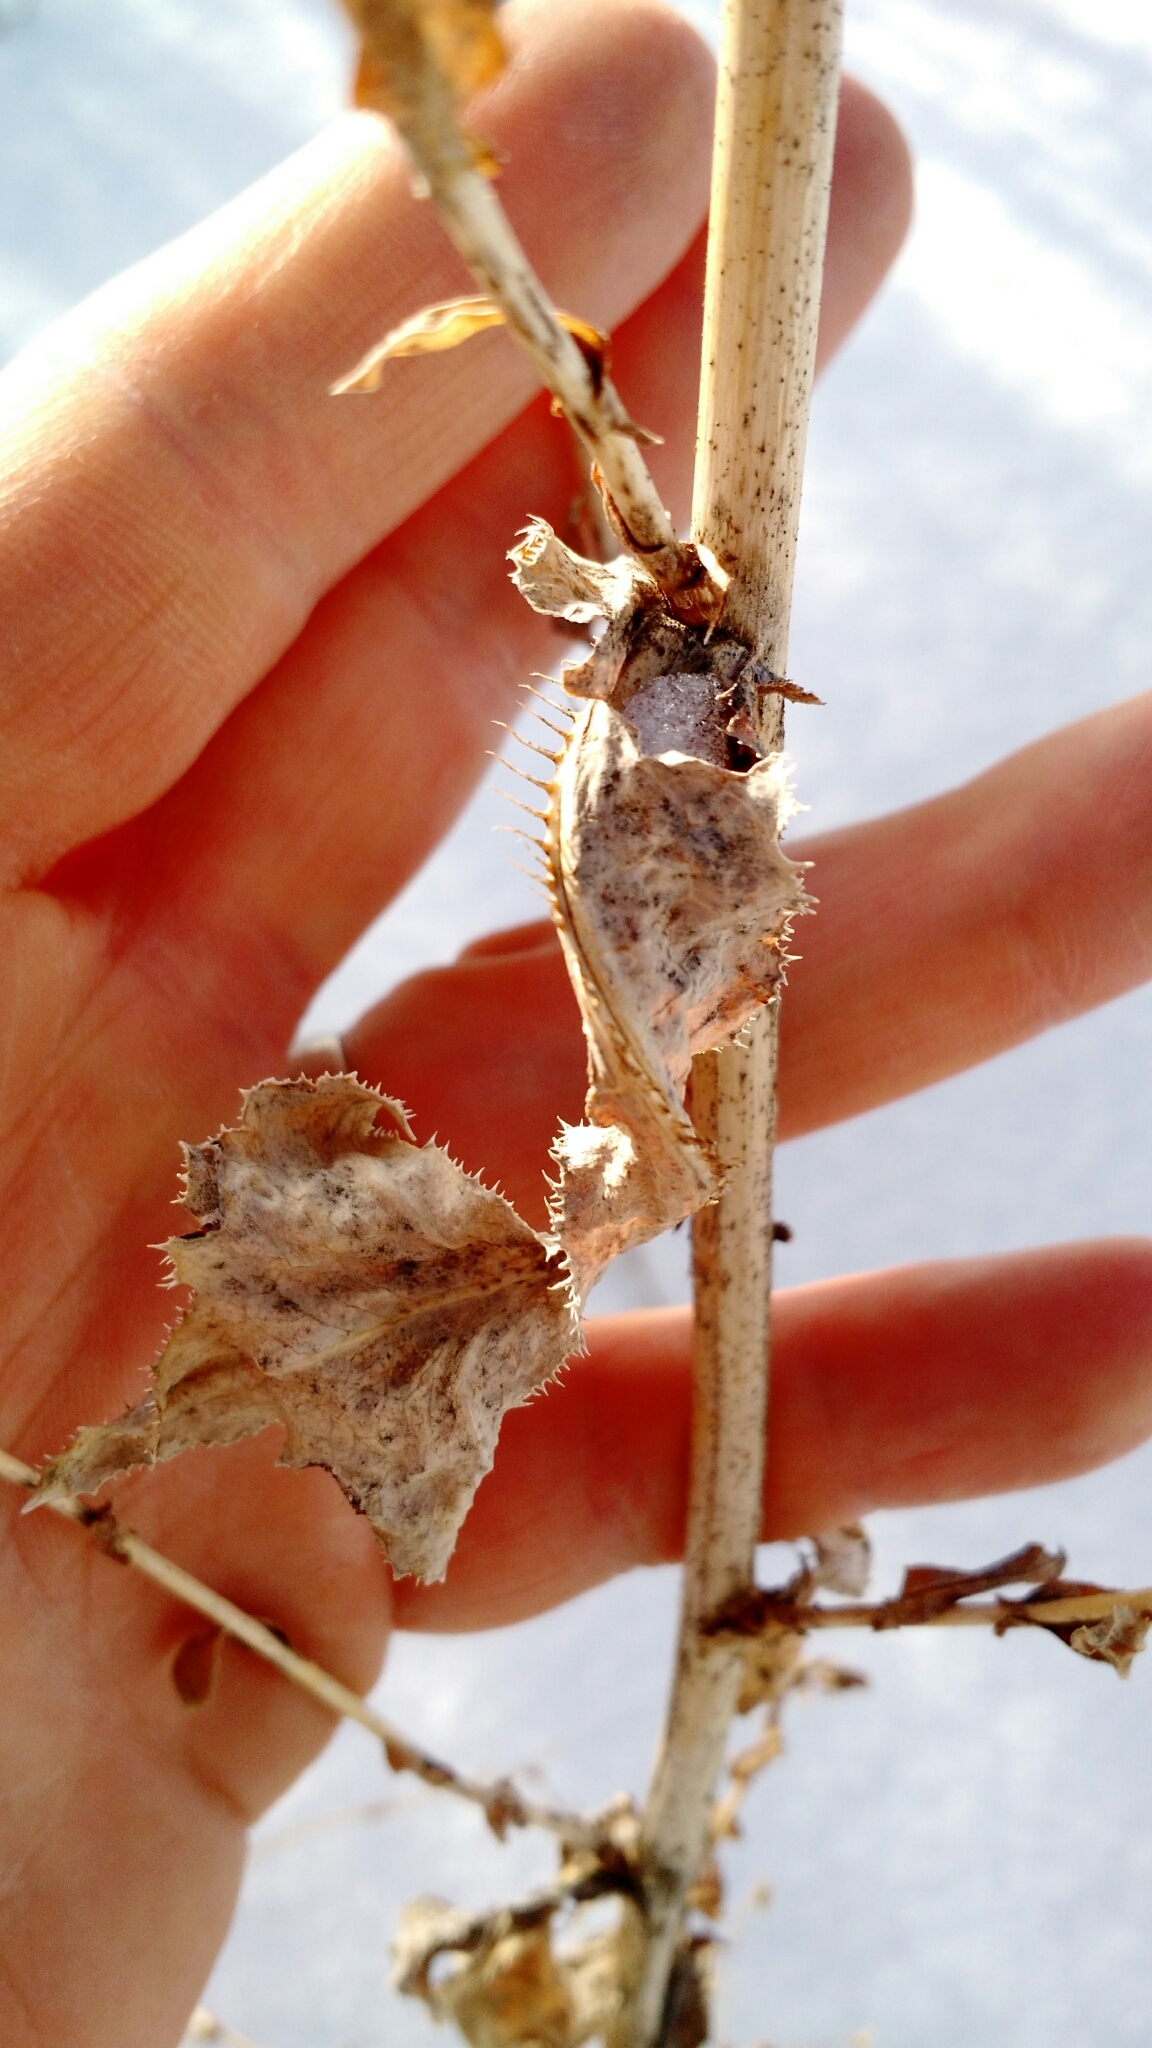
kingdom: Plantae
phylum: Tracheophyta
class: Magnoliopsida
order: Asterales
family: Asteraceae
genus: Lactuca
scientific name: Lactuca serriola
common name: Prickly lettuce
